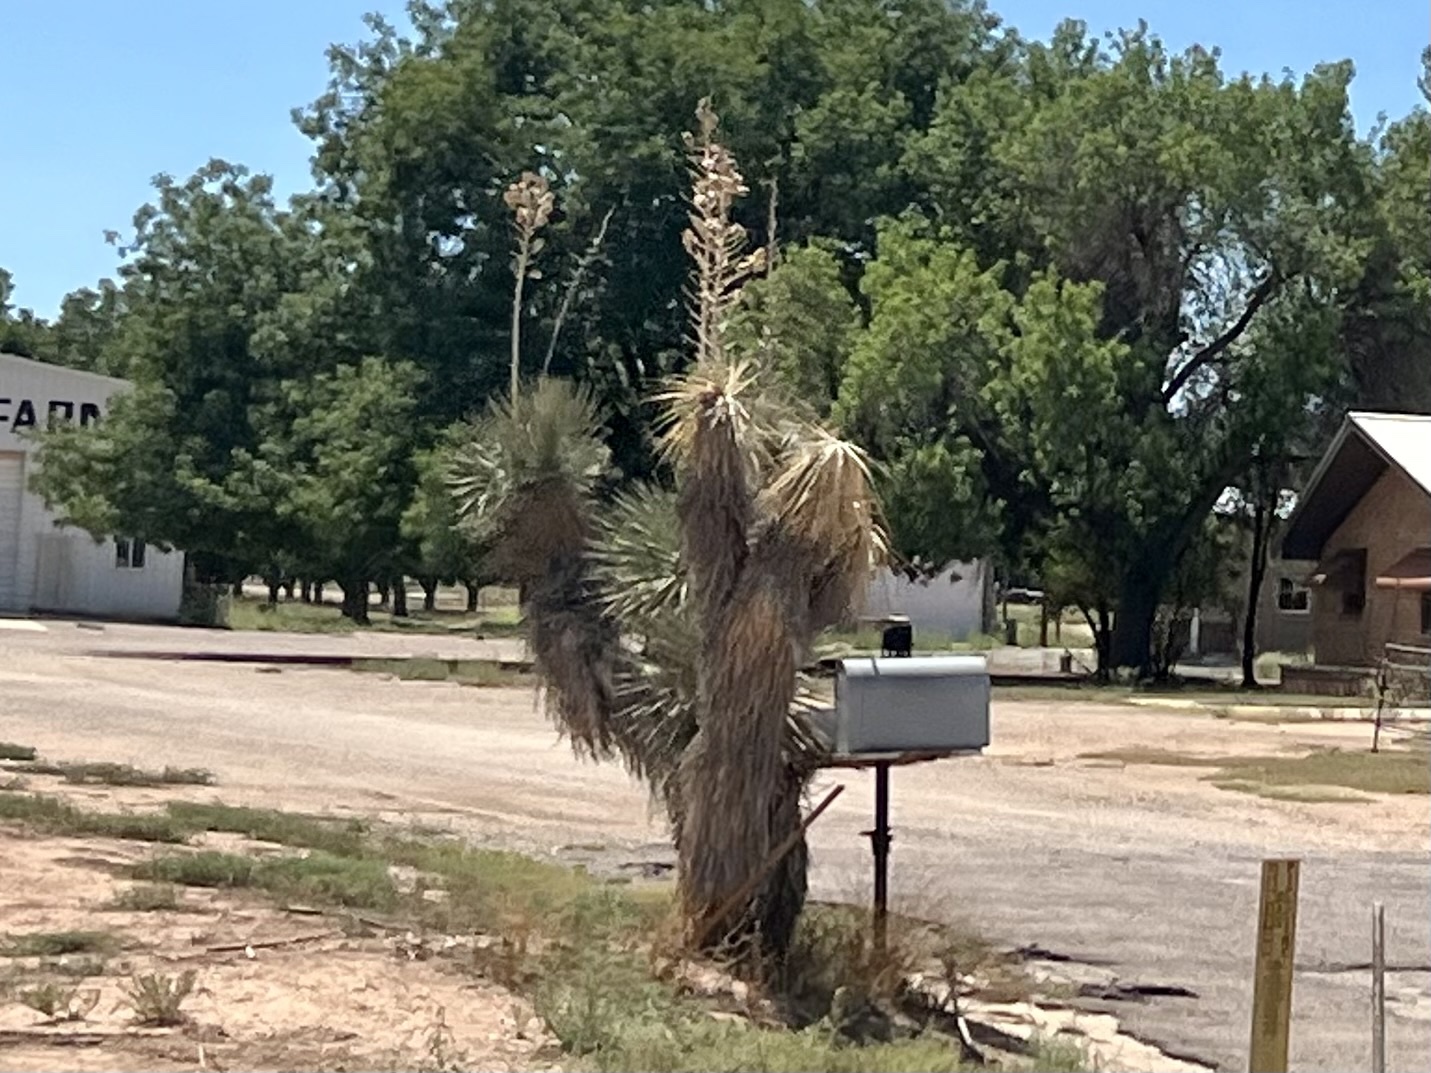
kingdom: Plantae
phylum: Tracheophyta
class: Liliopsida
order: Asparagales
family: Asparagaceae
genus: Yucca
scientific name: Yucca elata
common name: Palmella
